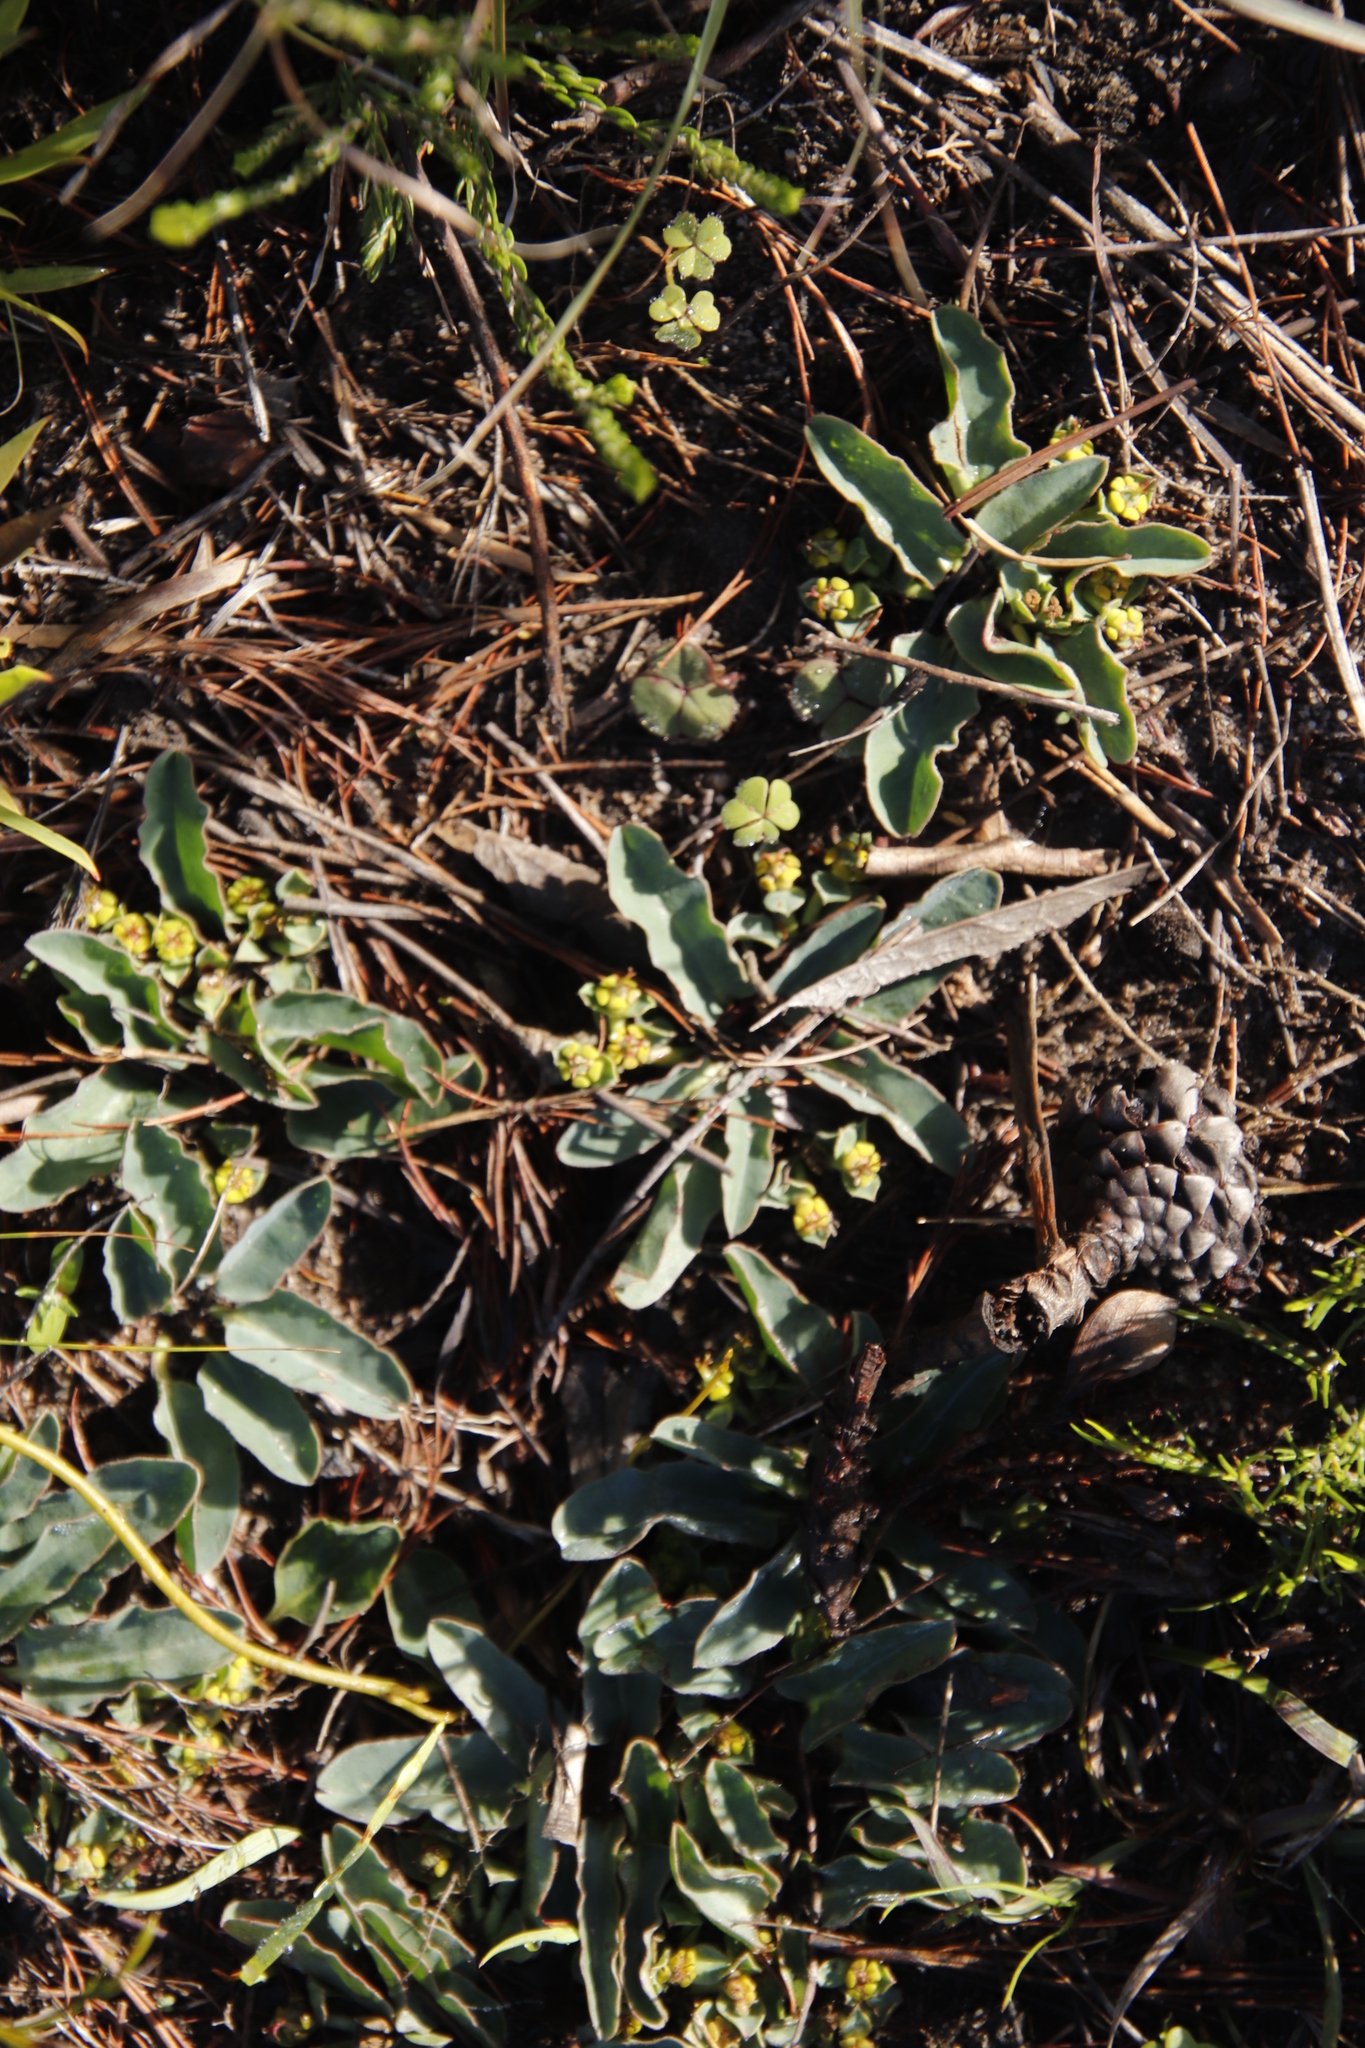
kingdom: Plantae
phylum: Tracheophyta
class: Magnoliopsida
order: Malpighiales
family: Euphorbiaceae
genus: Euphorbia
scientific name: Euphorbia tuberosa
